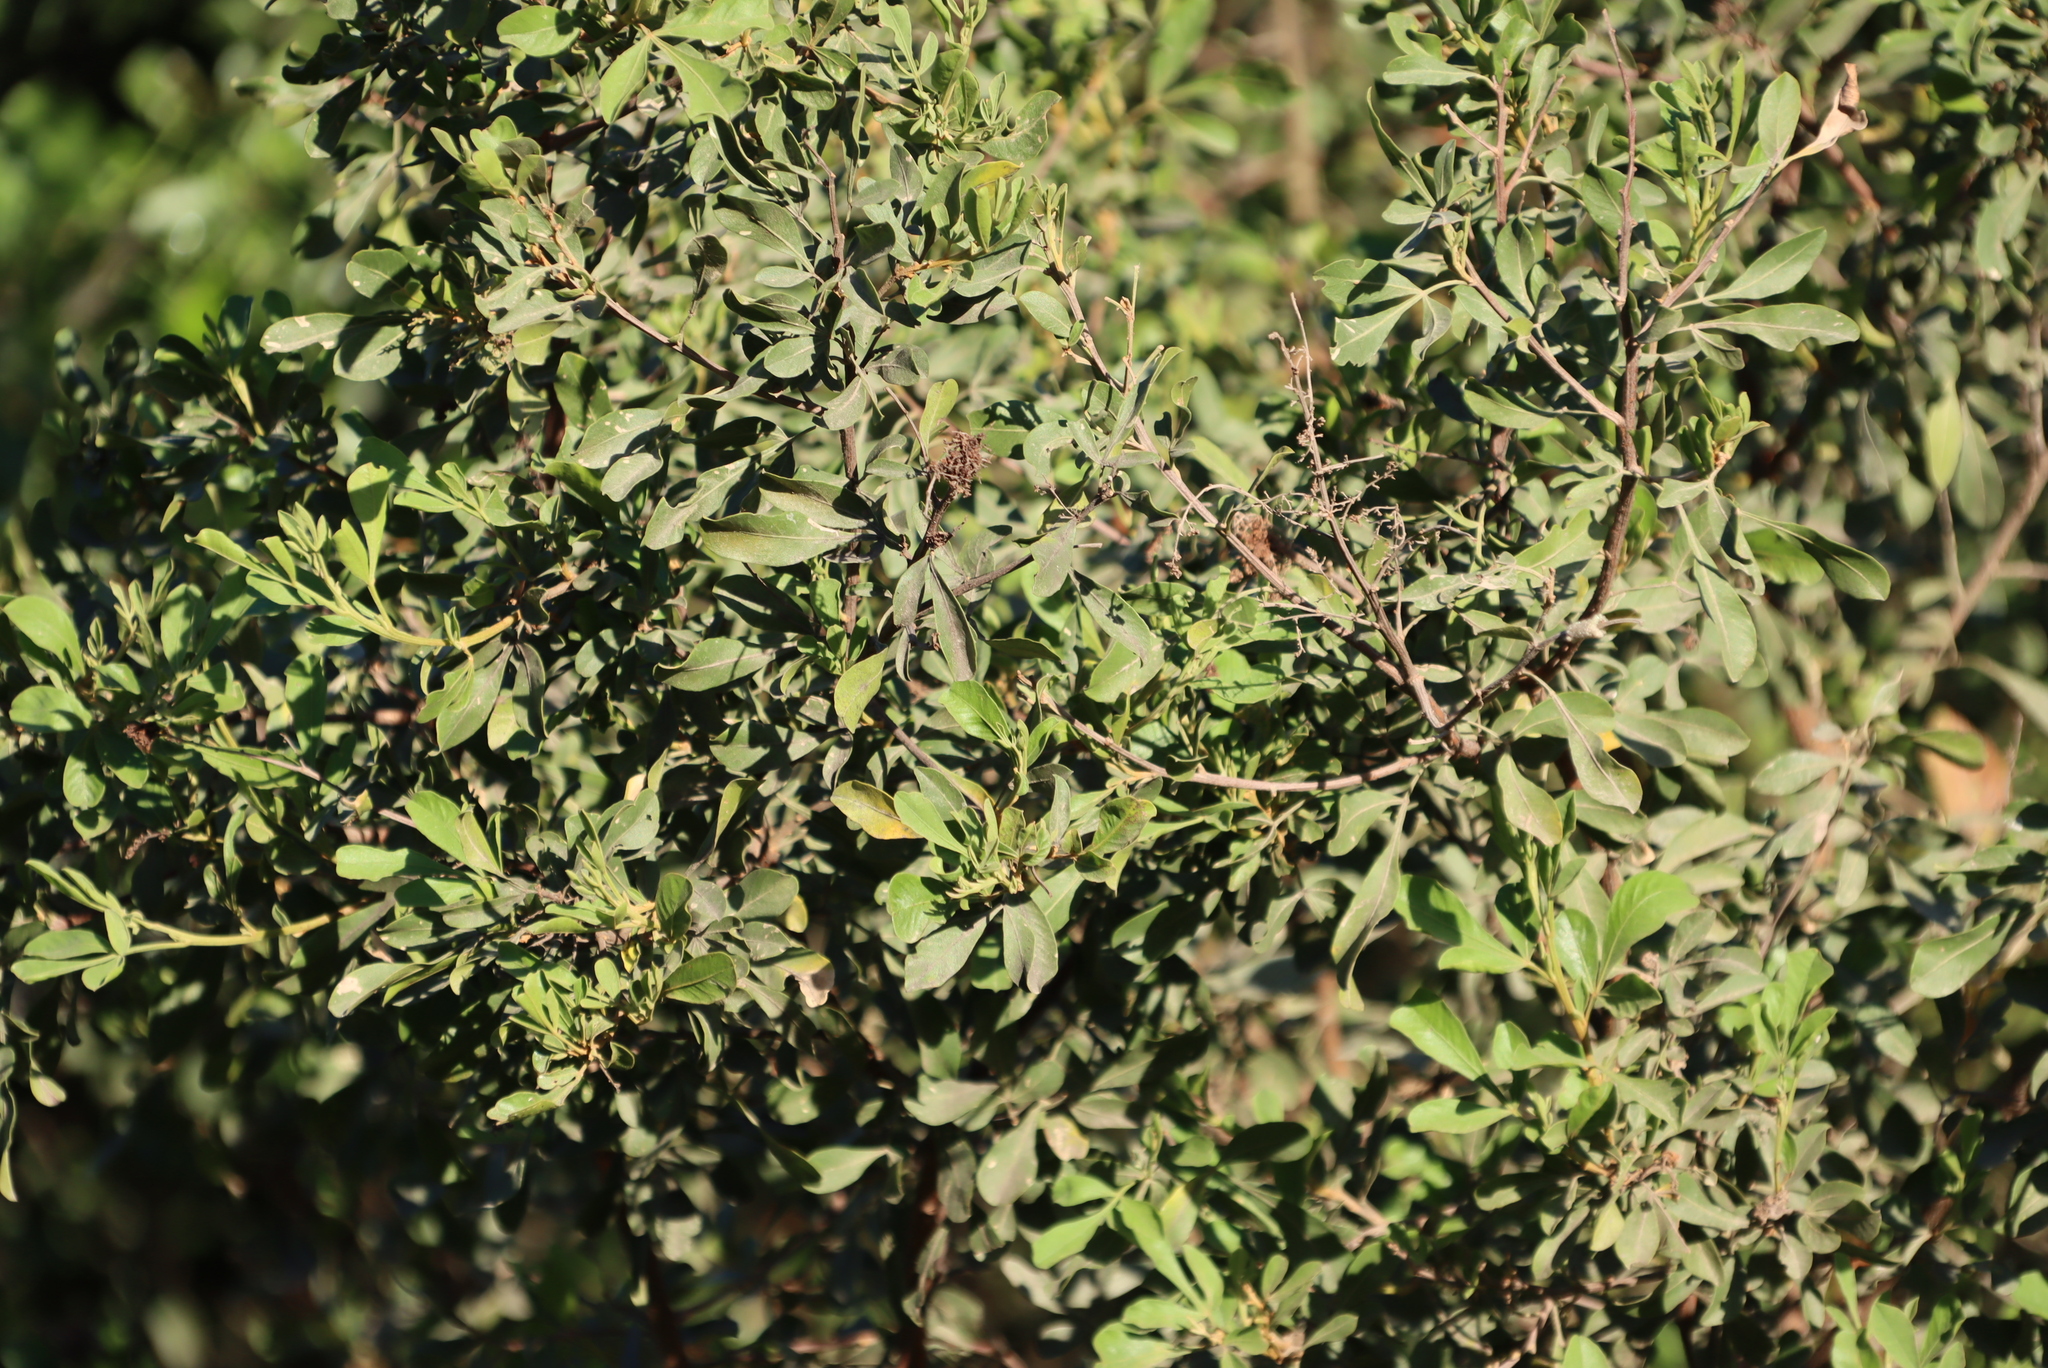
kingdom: Plantae
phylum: Tracheophyta
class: Magnoliopsida
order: Sapindales
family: Anacardiaceae
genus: Searsia
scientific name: Searsia pallens
